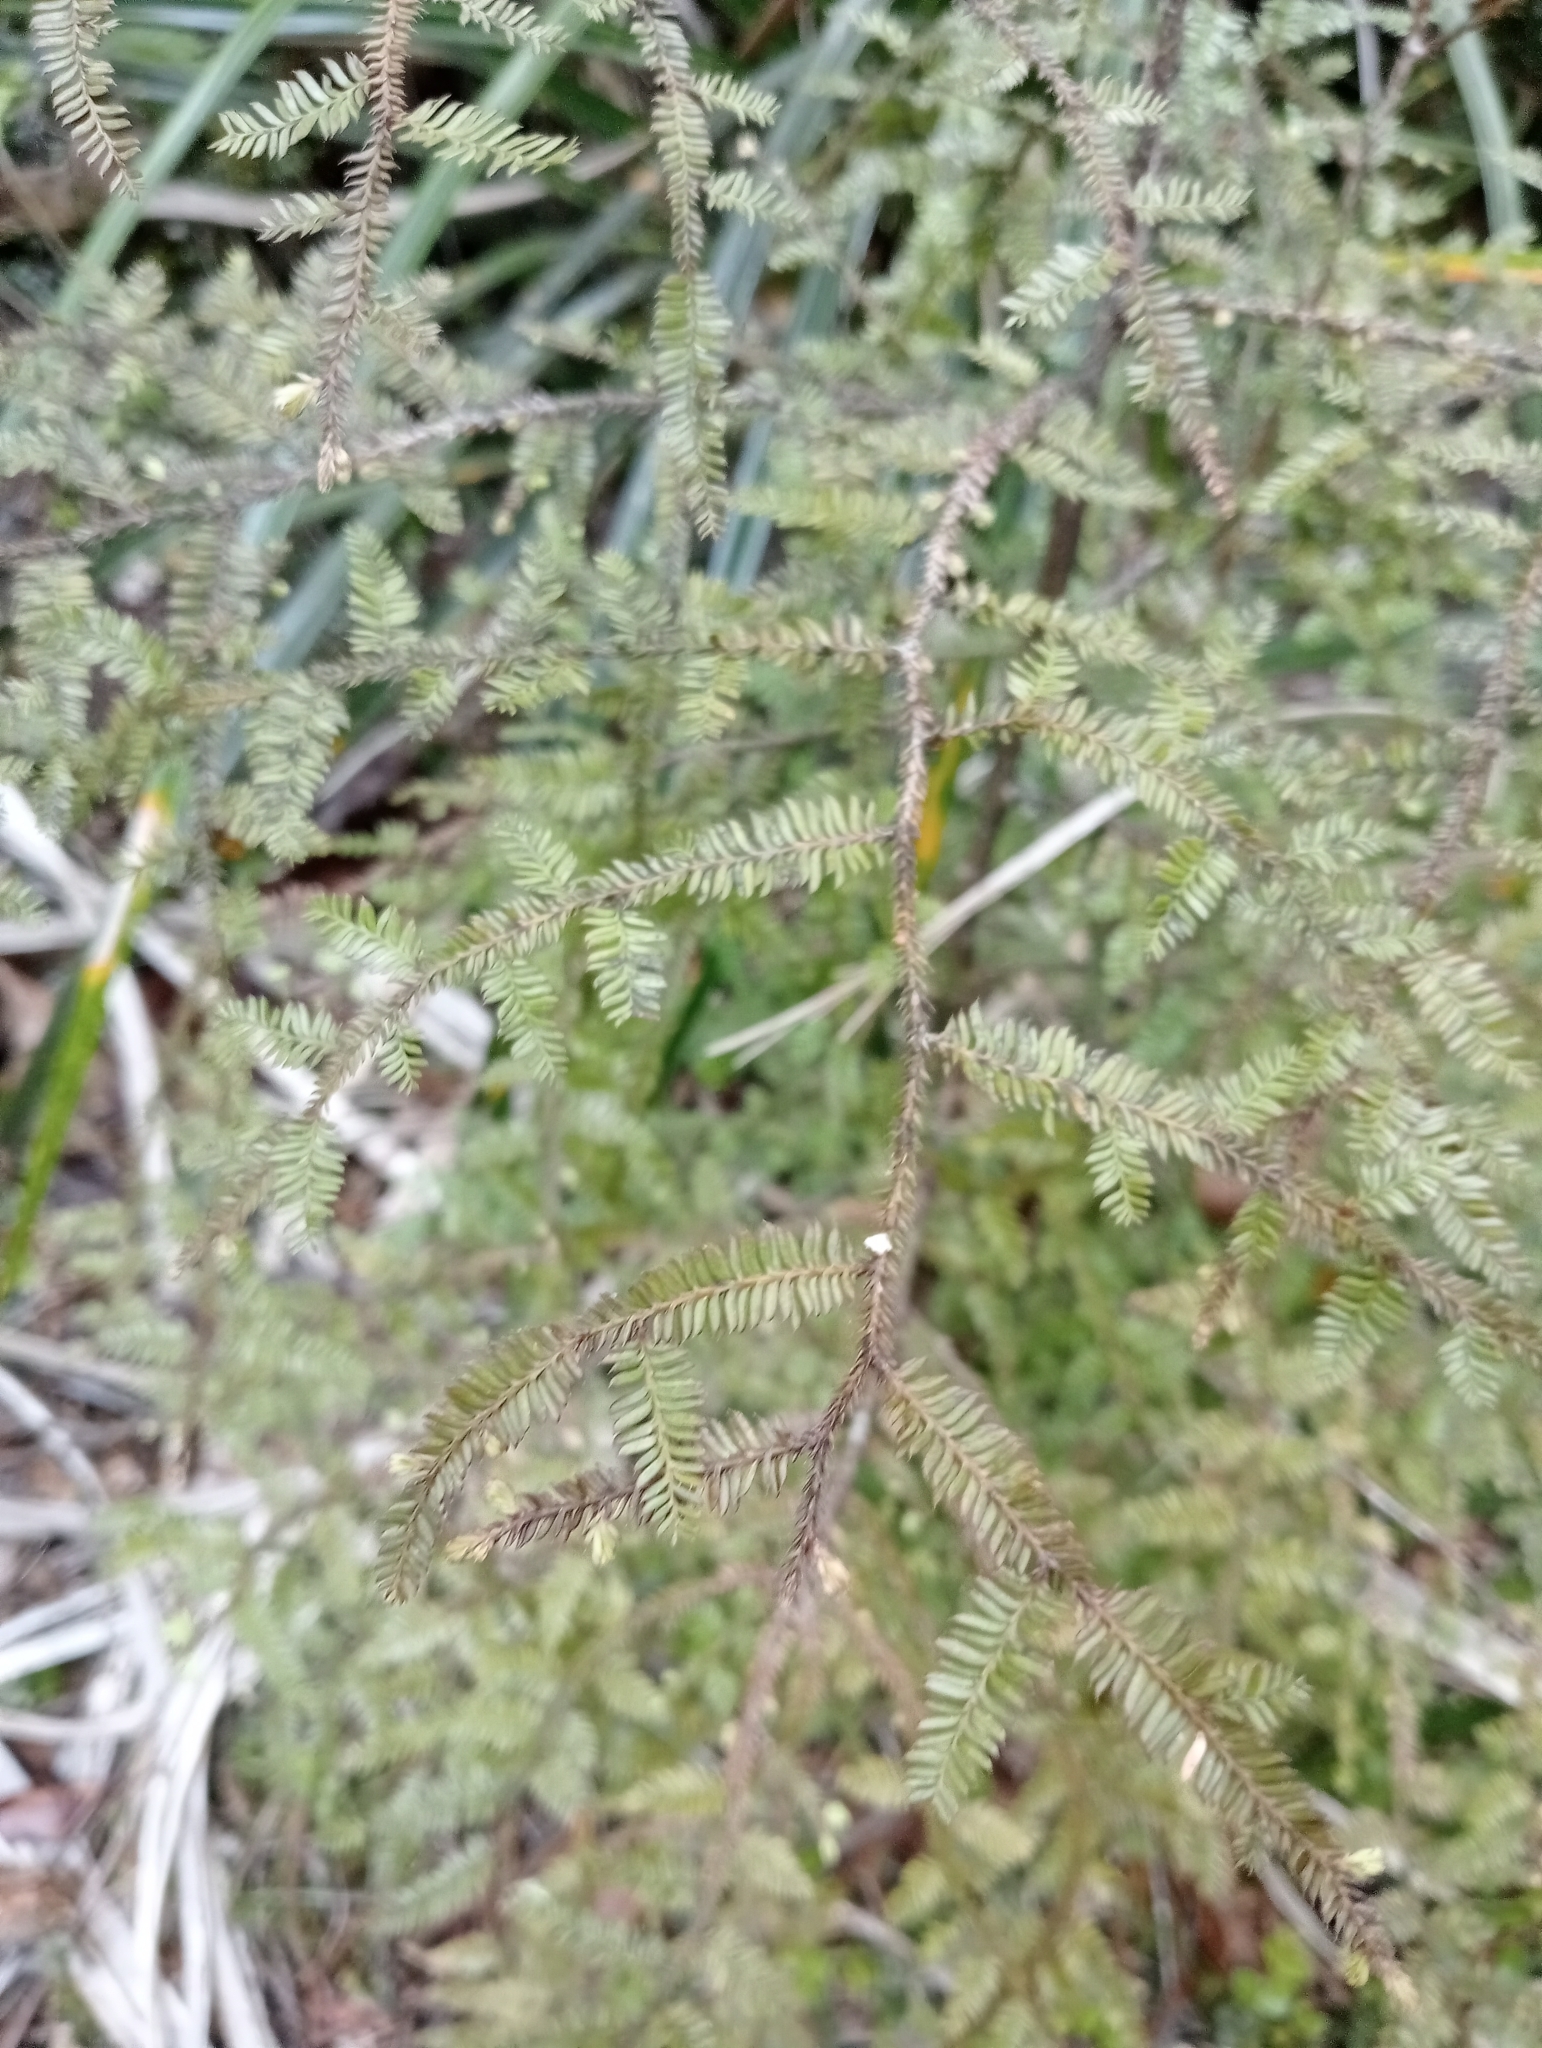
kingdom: Plantae
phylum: Tracheophyta
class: Pinopsida
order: Pinales
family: Podocarpaceae
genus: Dacrycarpus
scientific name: Dacrycarpus dacrydioides
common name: White pine
